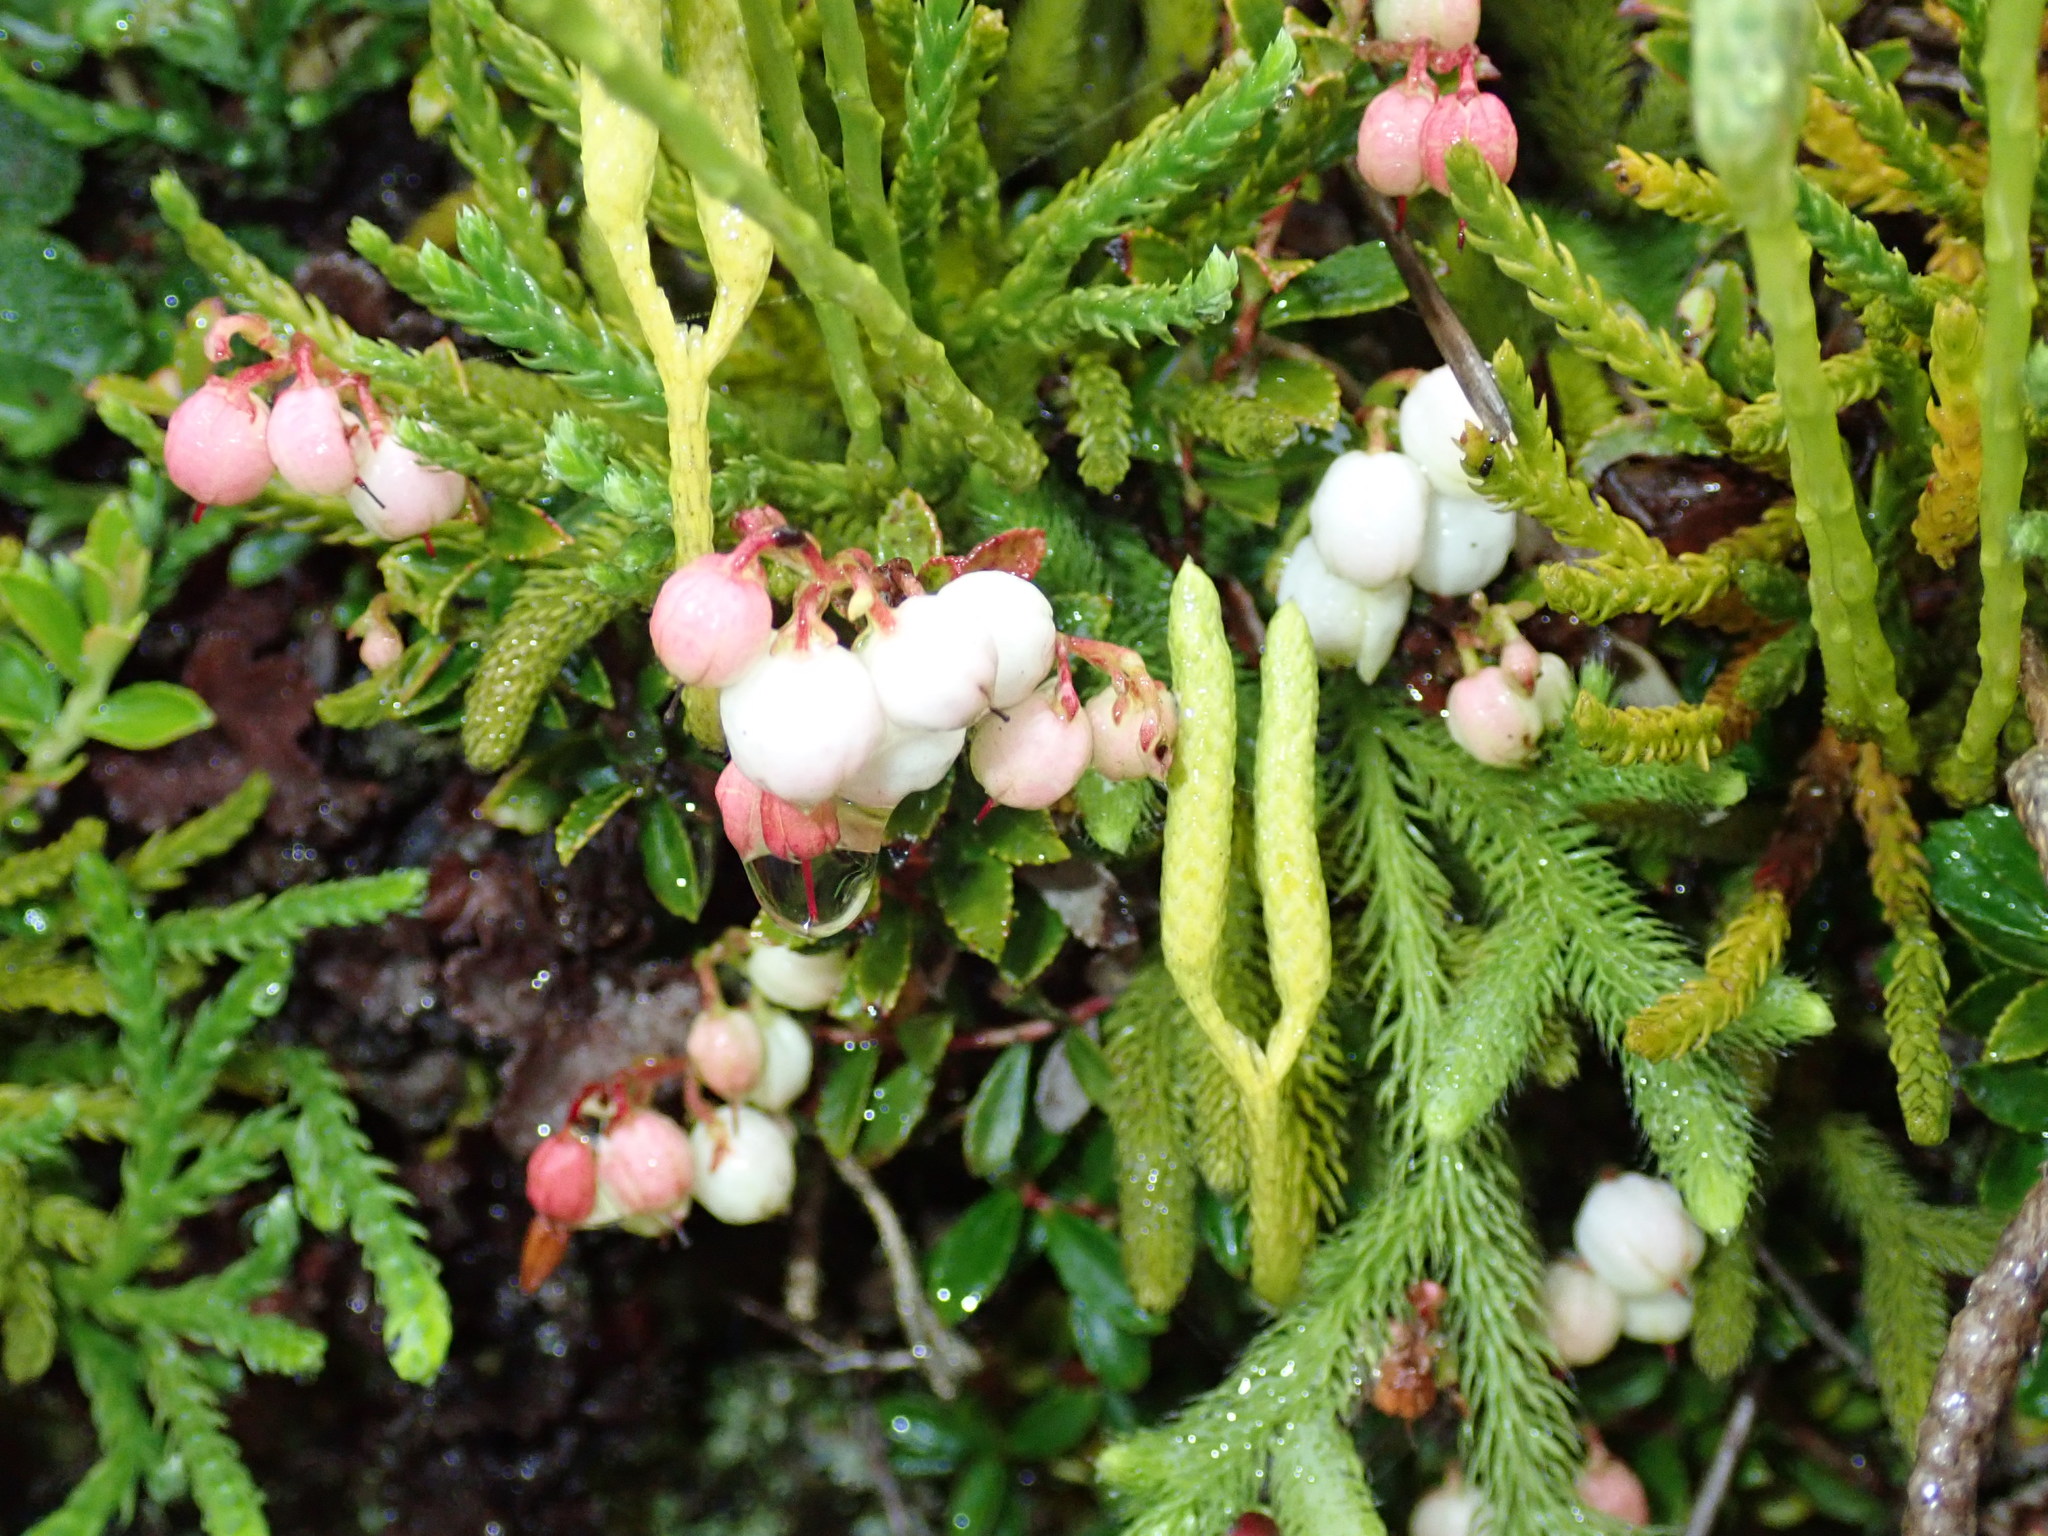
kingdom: Plantae
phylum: Tracheophyta
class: Magnoliopsida
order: Ericales
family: Ericaceae
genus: Gaultheria
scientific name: Gaultheria borneensis
